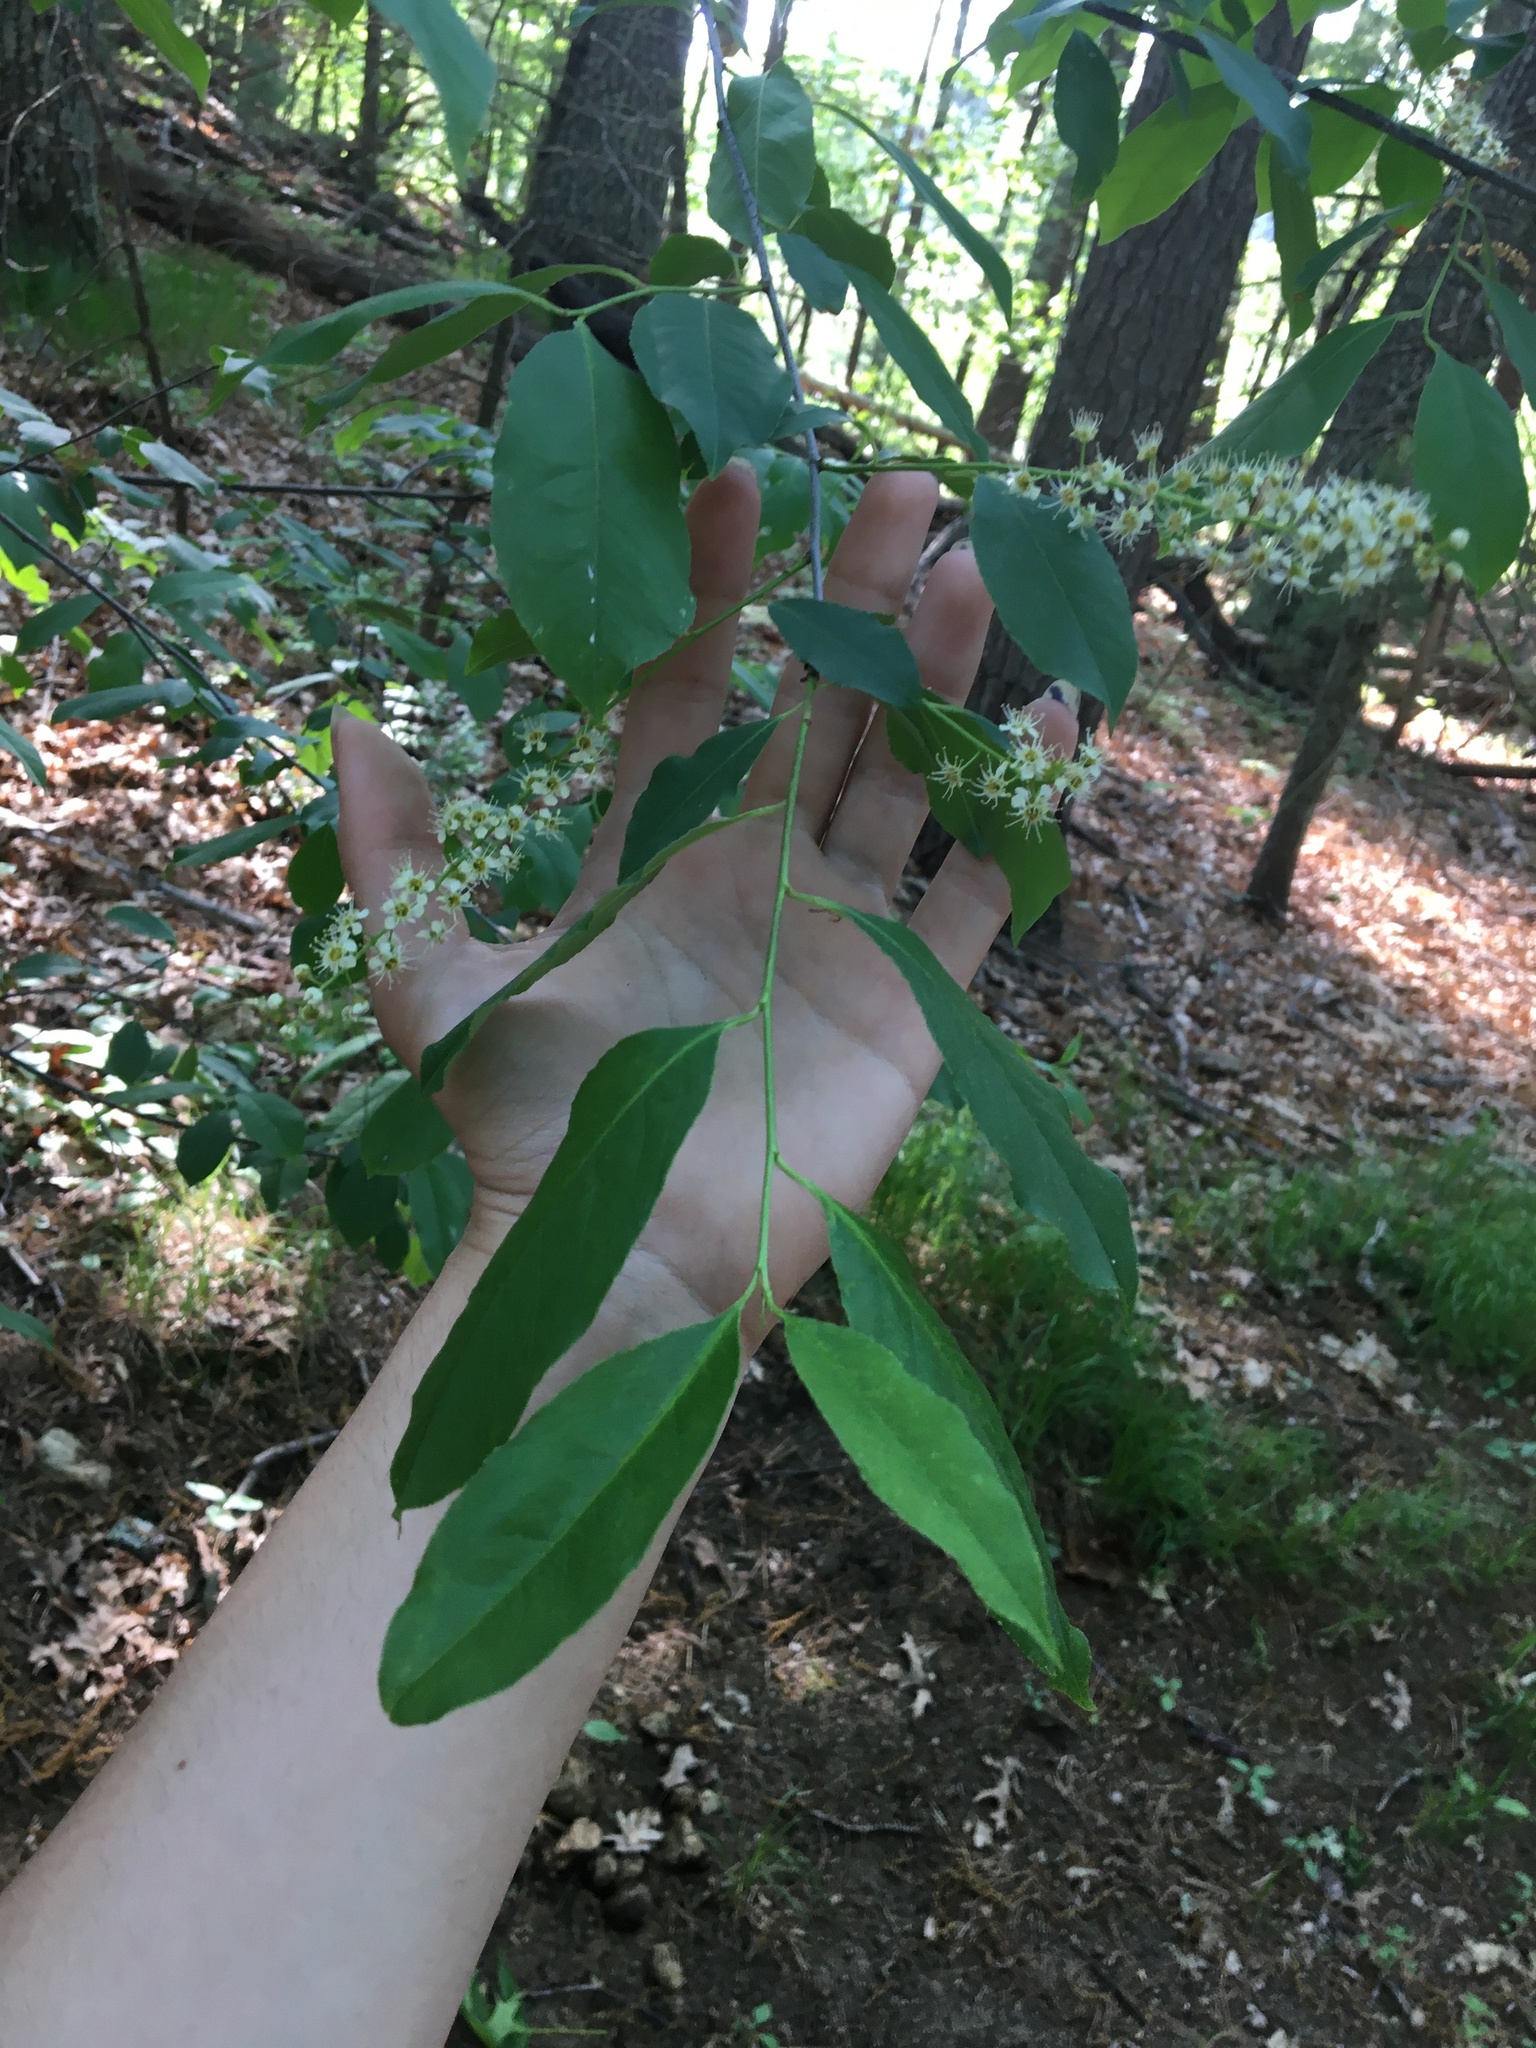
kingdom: Plantae
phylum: Tracheophyta
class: Magnoliopsida
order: Rosales
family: Rosaceae
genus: Prunus
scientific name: Prunus serotina
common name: Black cherry
